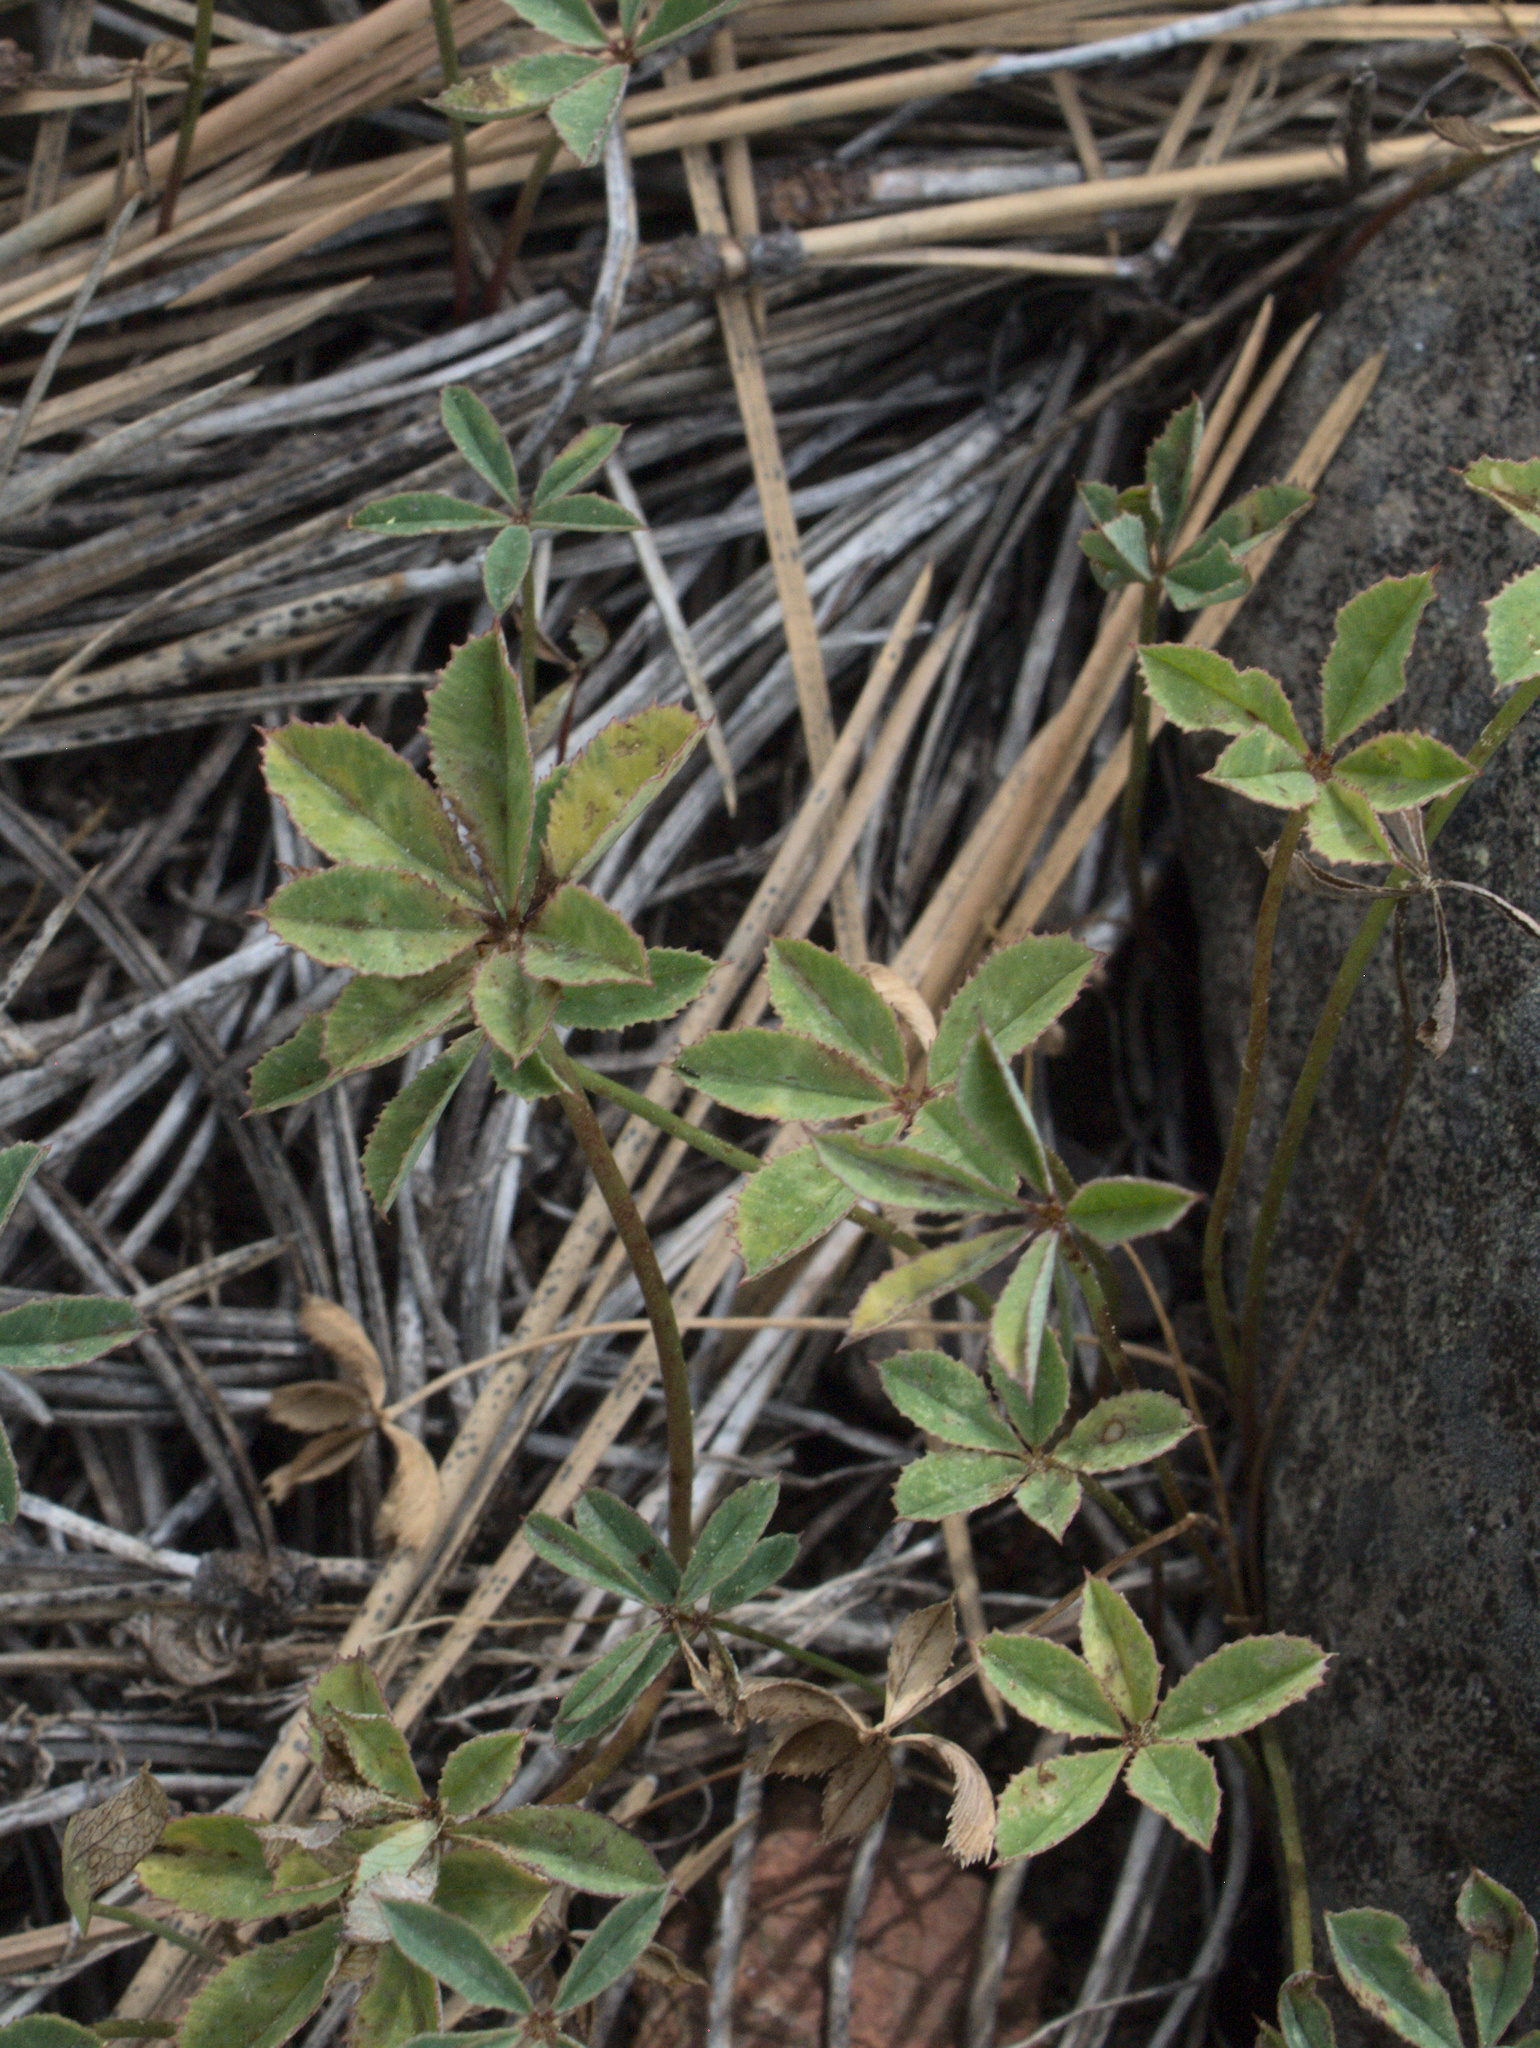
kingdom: Plantae
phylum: Tracheophyta
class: Magnoliopsida
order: Fabales
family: Fabaceae
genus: Trifolium
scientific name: Trifolium macrocephalum
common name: Large-head clover
